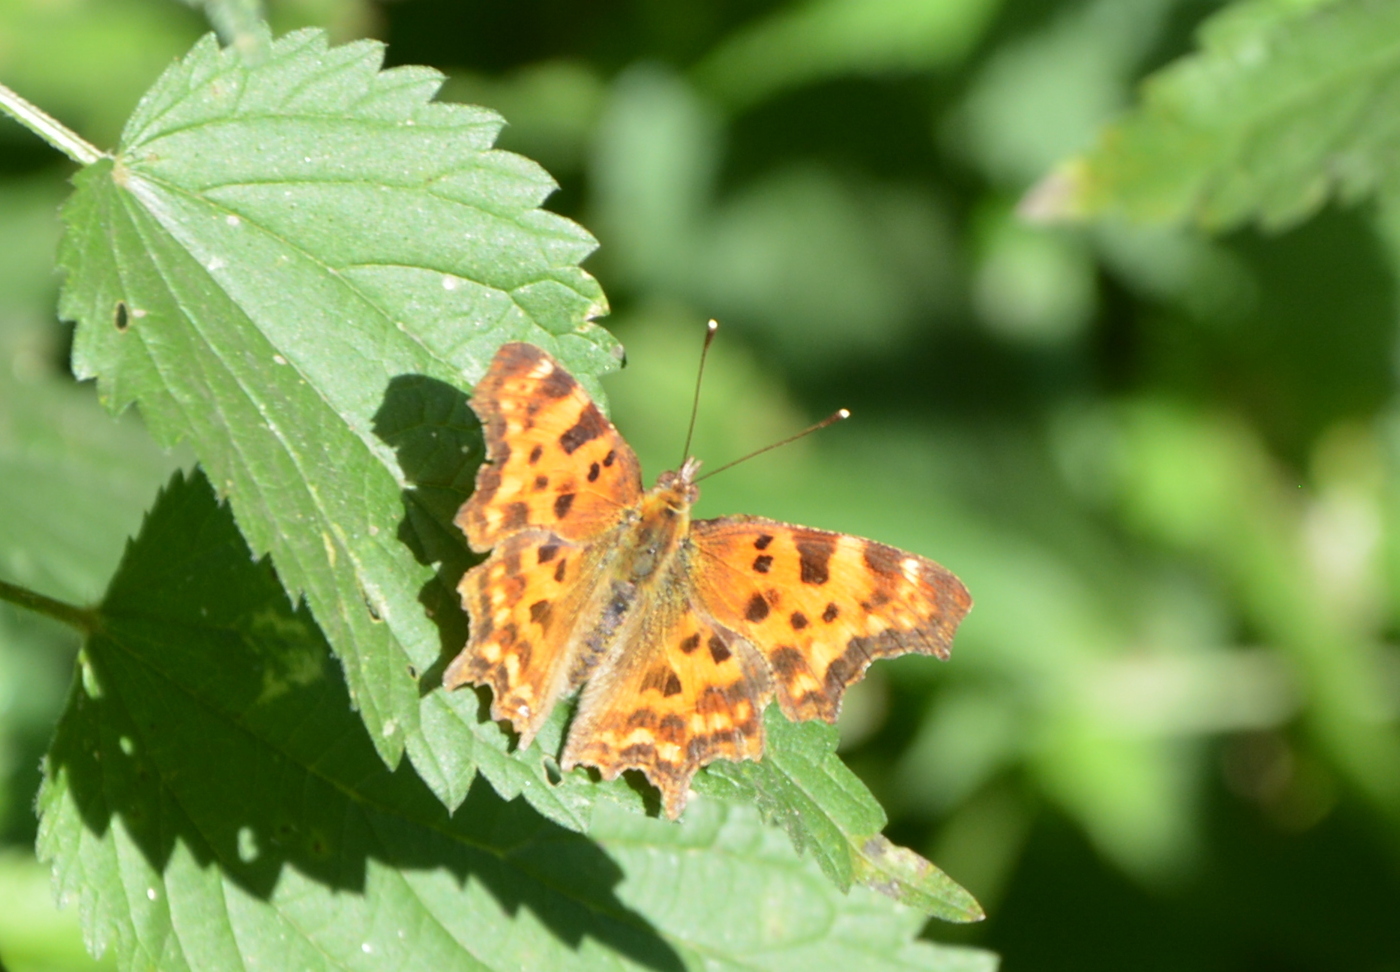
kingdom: Animalia
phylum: Arthropoda
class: Insecta
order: Lepidoptera
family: Nymphalidae
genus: Polygonia
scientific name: Polygonia c-album
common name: Comma
